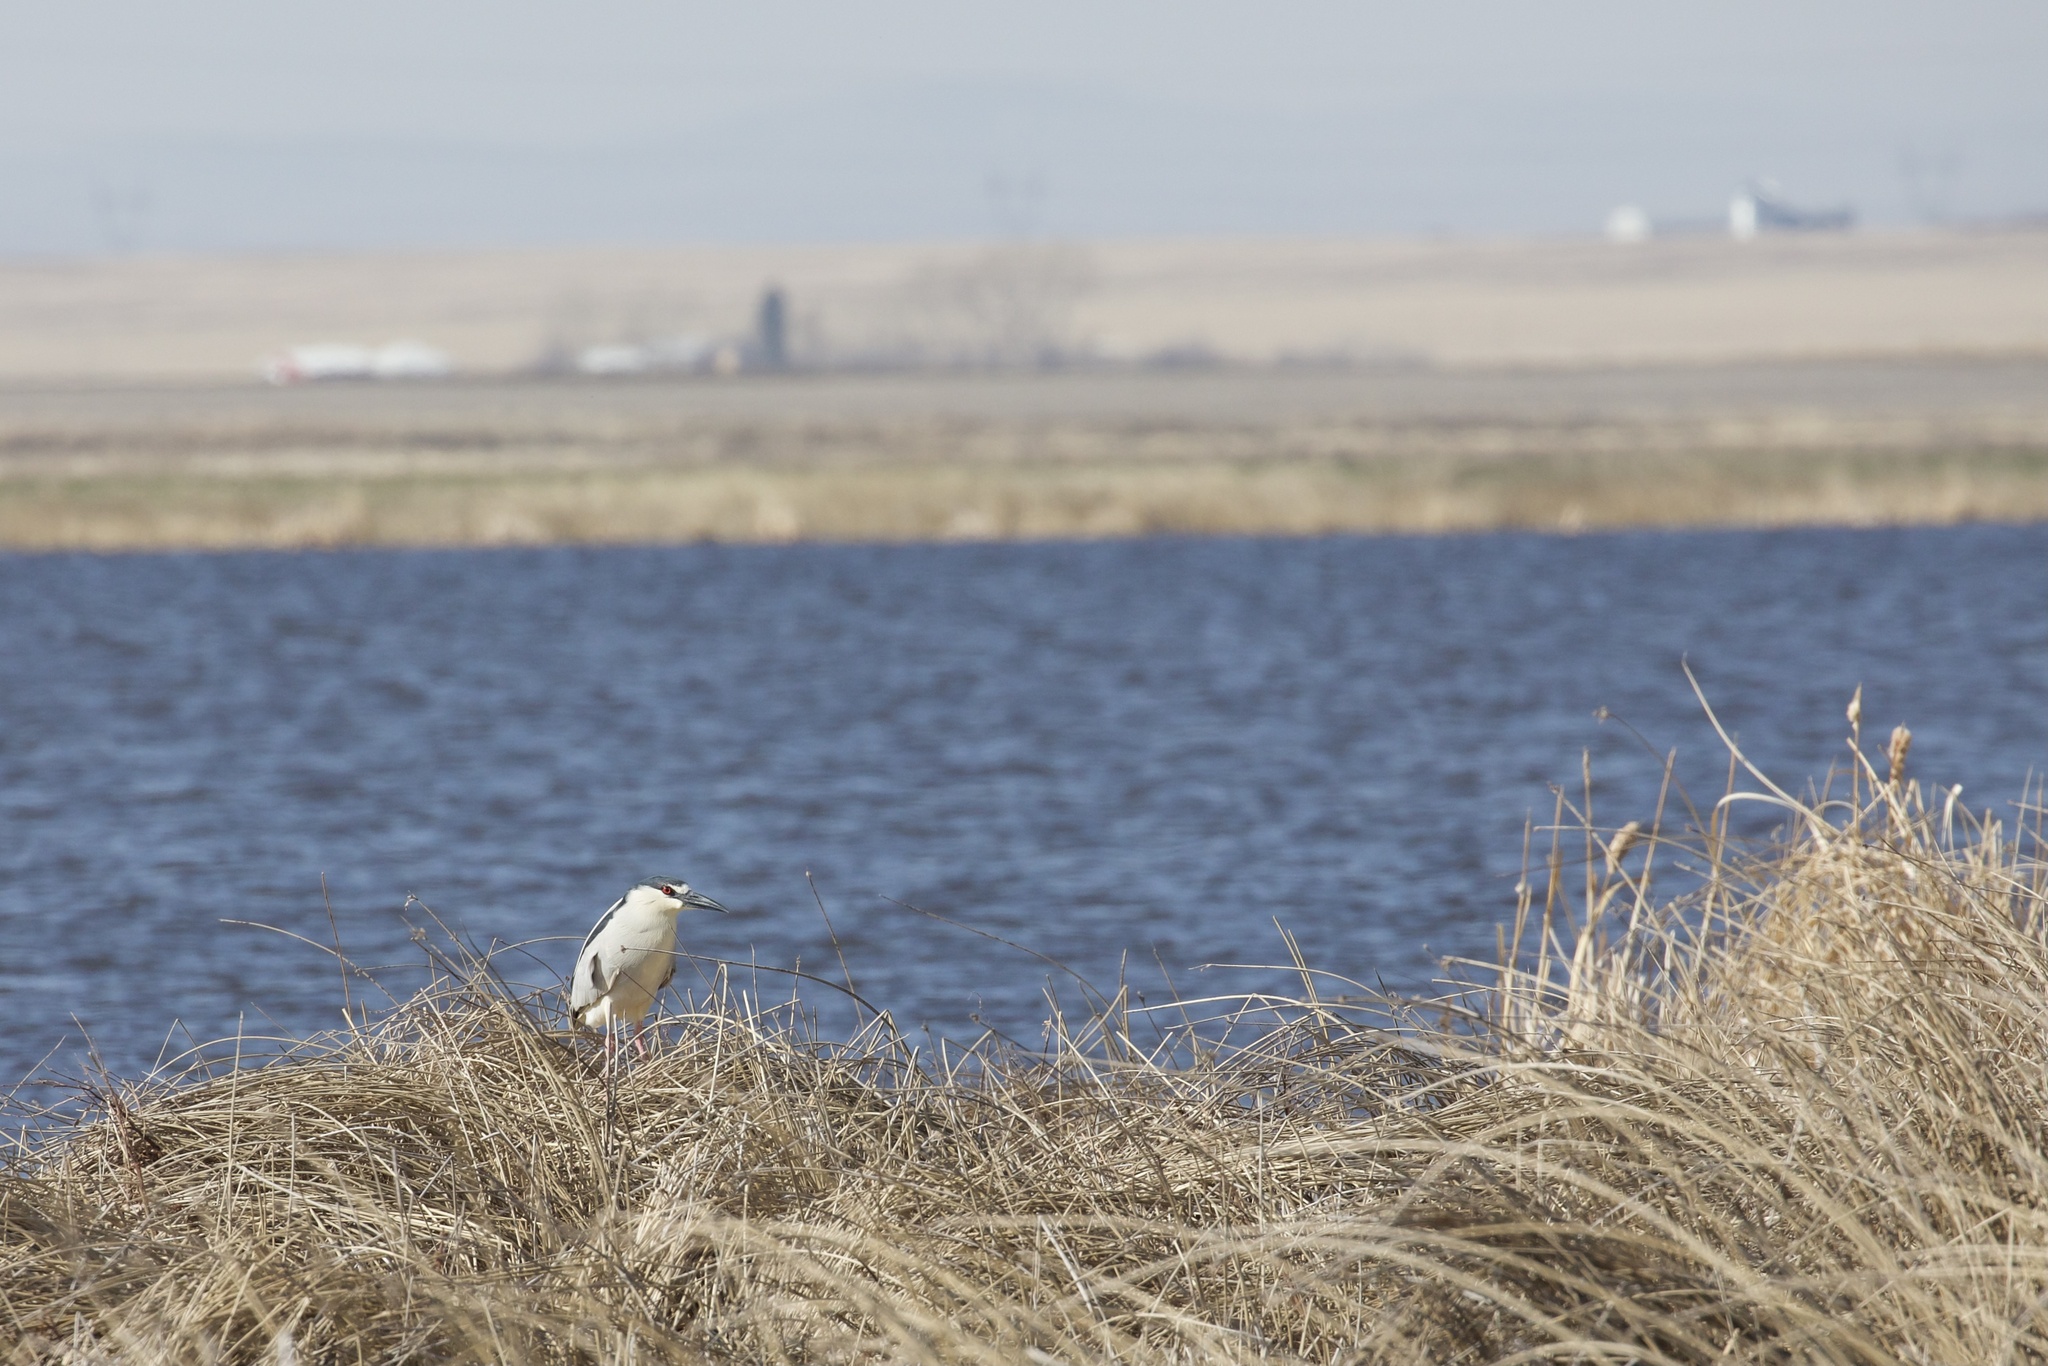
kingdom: Animalia
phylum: Chordata
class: Aves
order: Pelecaniformes
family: Ardeidae
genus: Nycticorax
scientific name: Nycticorax nycticorax
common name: Black-crowned night heron
